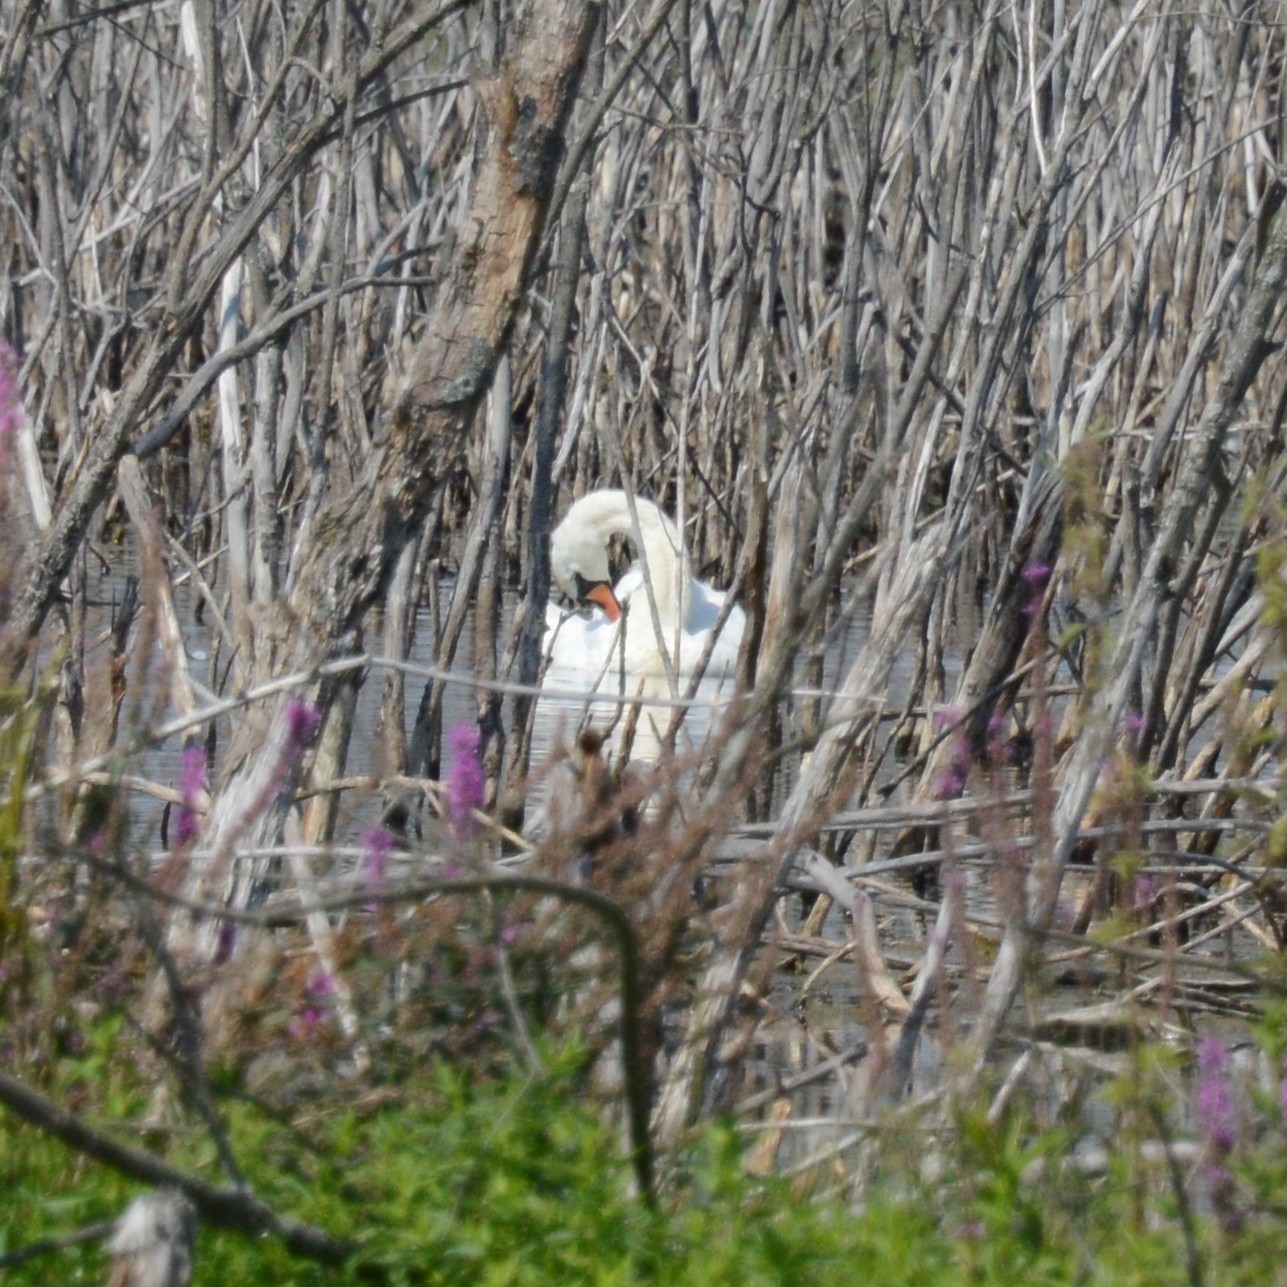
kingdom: Animalia
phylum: Chordata
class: Aves
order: Anseriformes
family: Anatidae
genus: Cygnus
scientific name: Cygnus olor
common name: Mute swan
